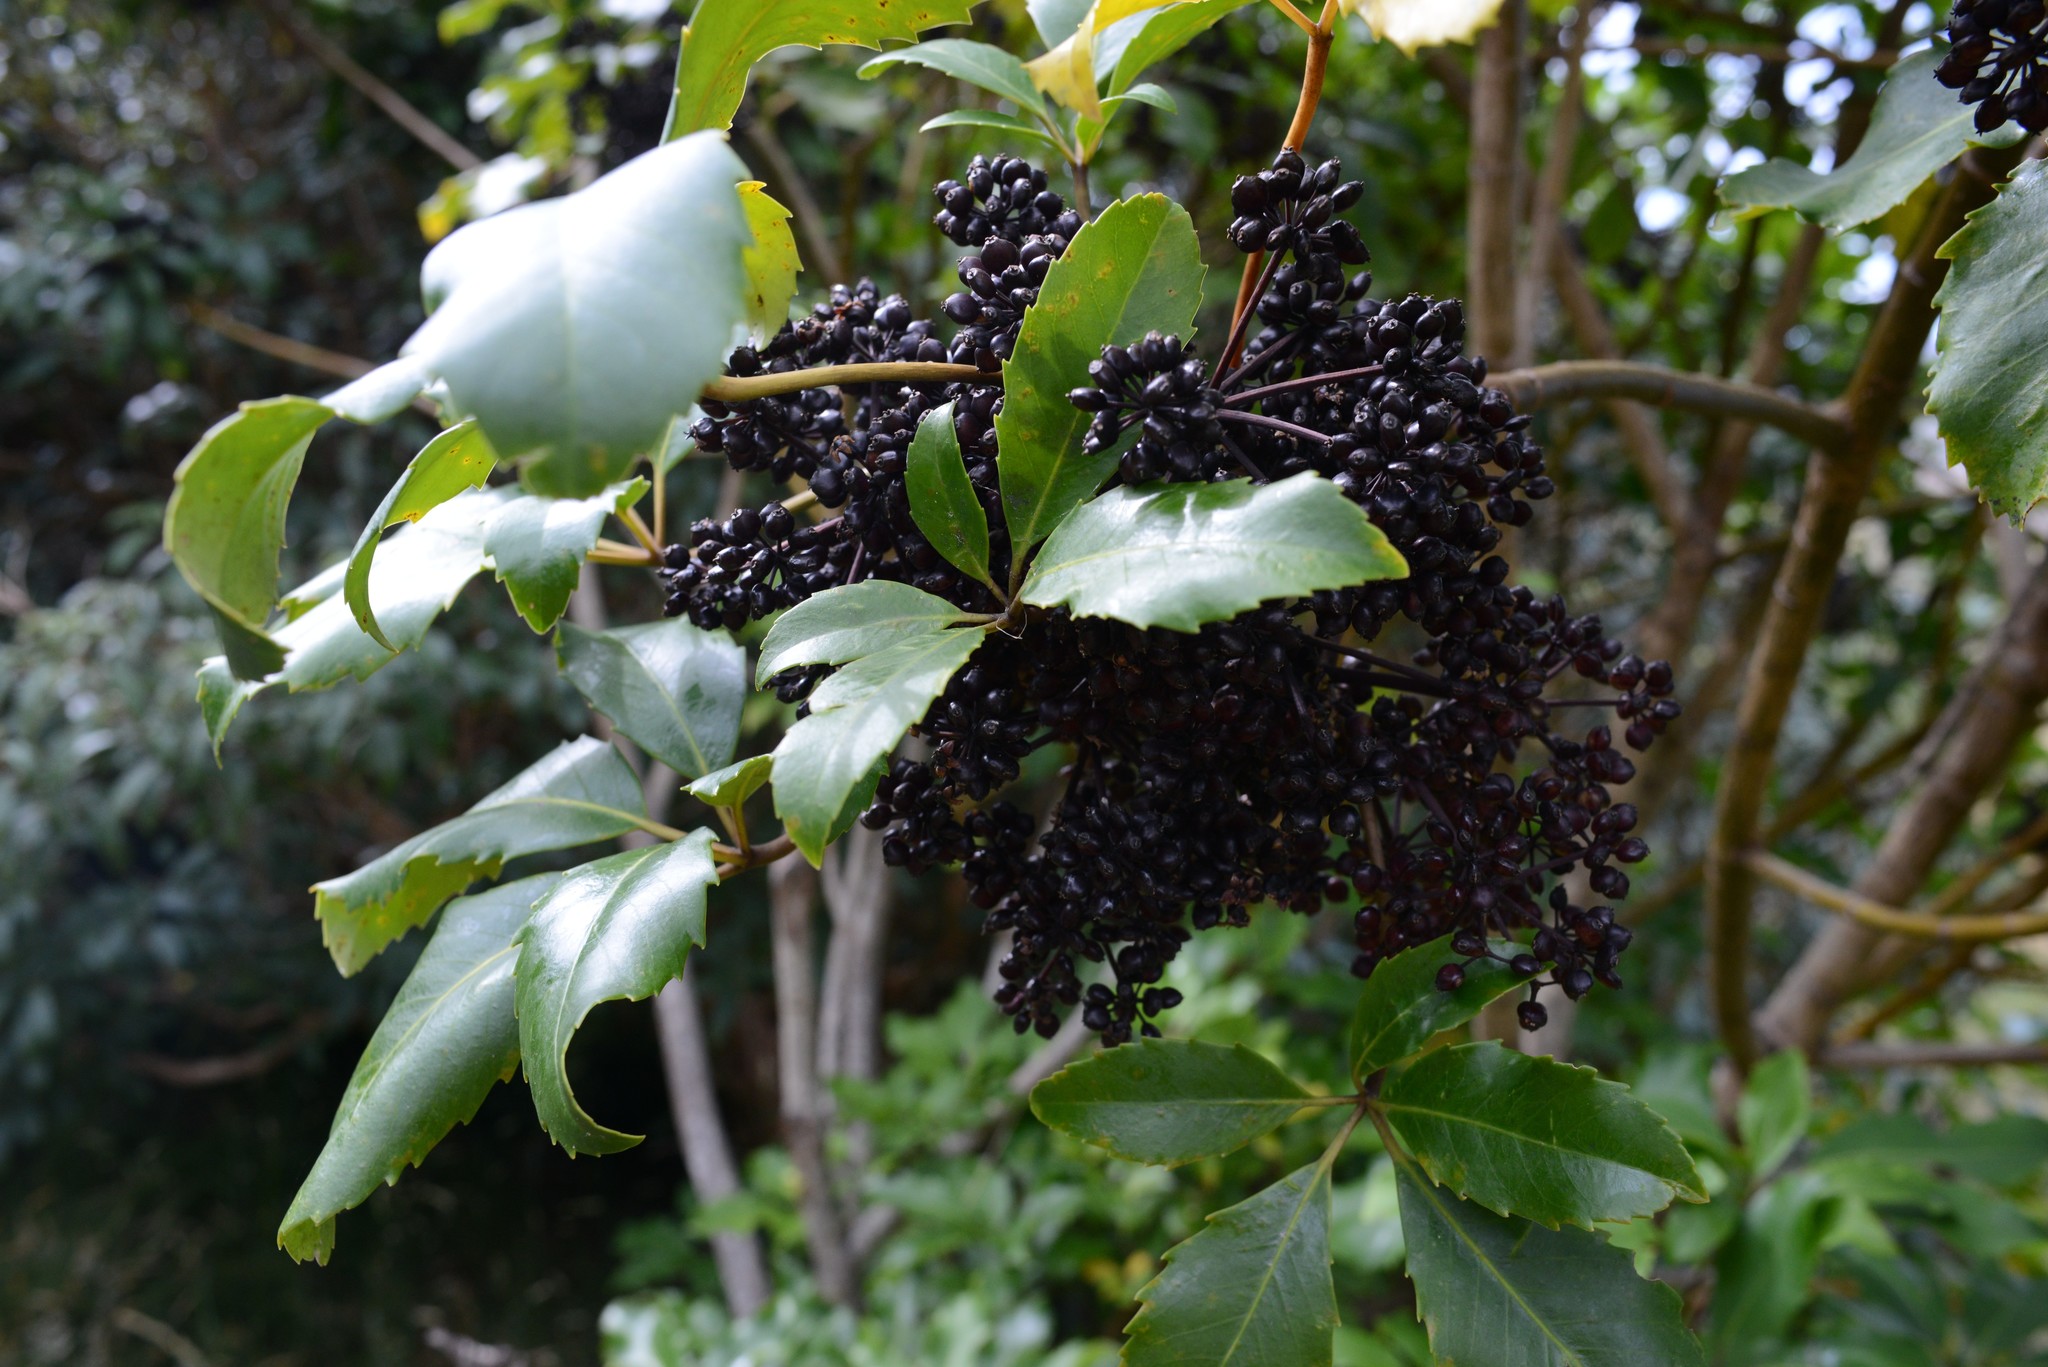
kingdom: Plantae
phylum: Tracheophyta
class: Magnoliopsida
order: Apiales
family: Araliaceae
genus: Neopanax
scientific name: Neopanax arboreus
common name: Five-fingers
